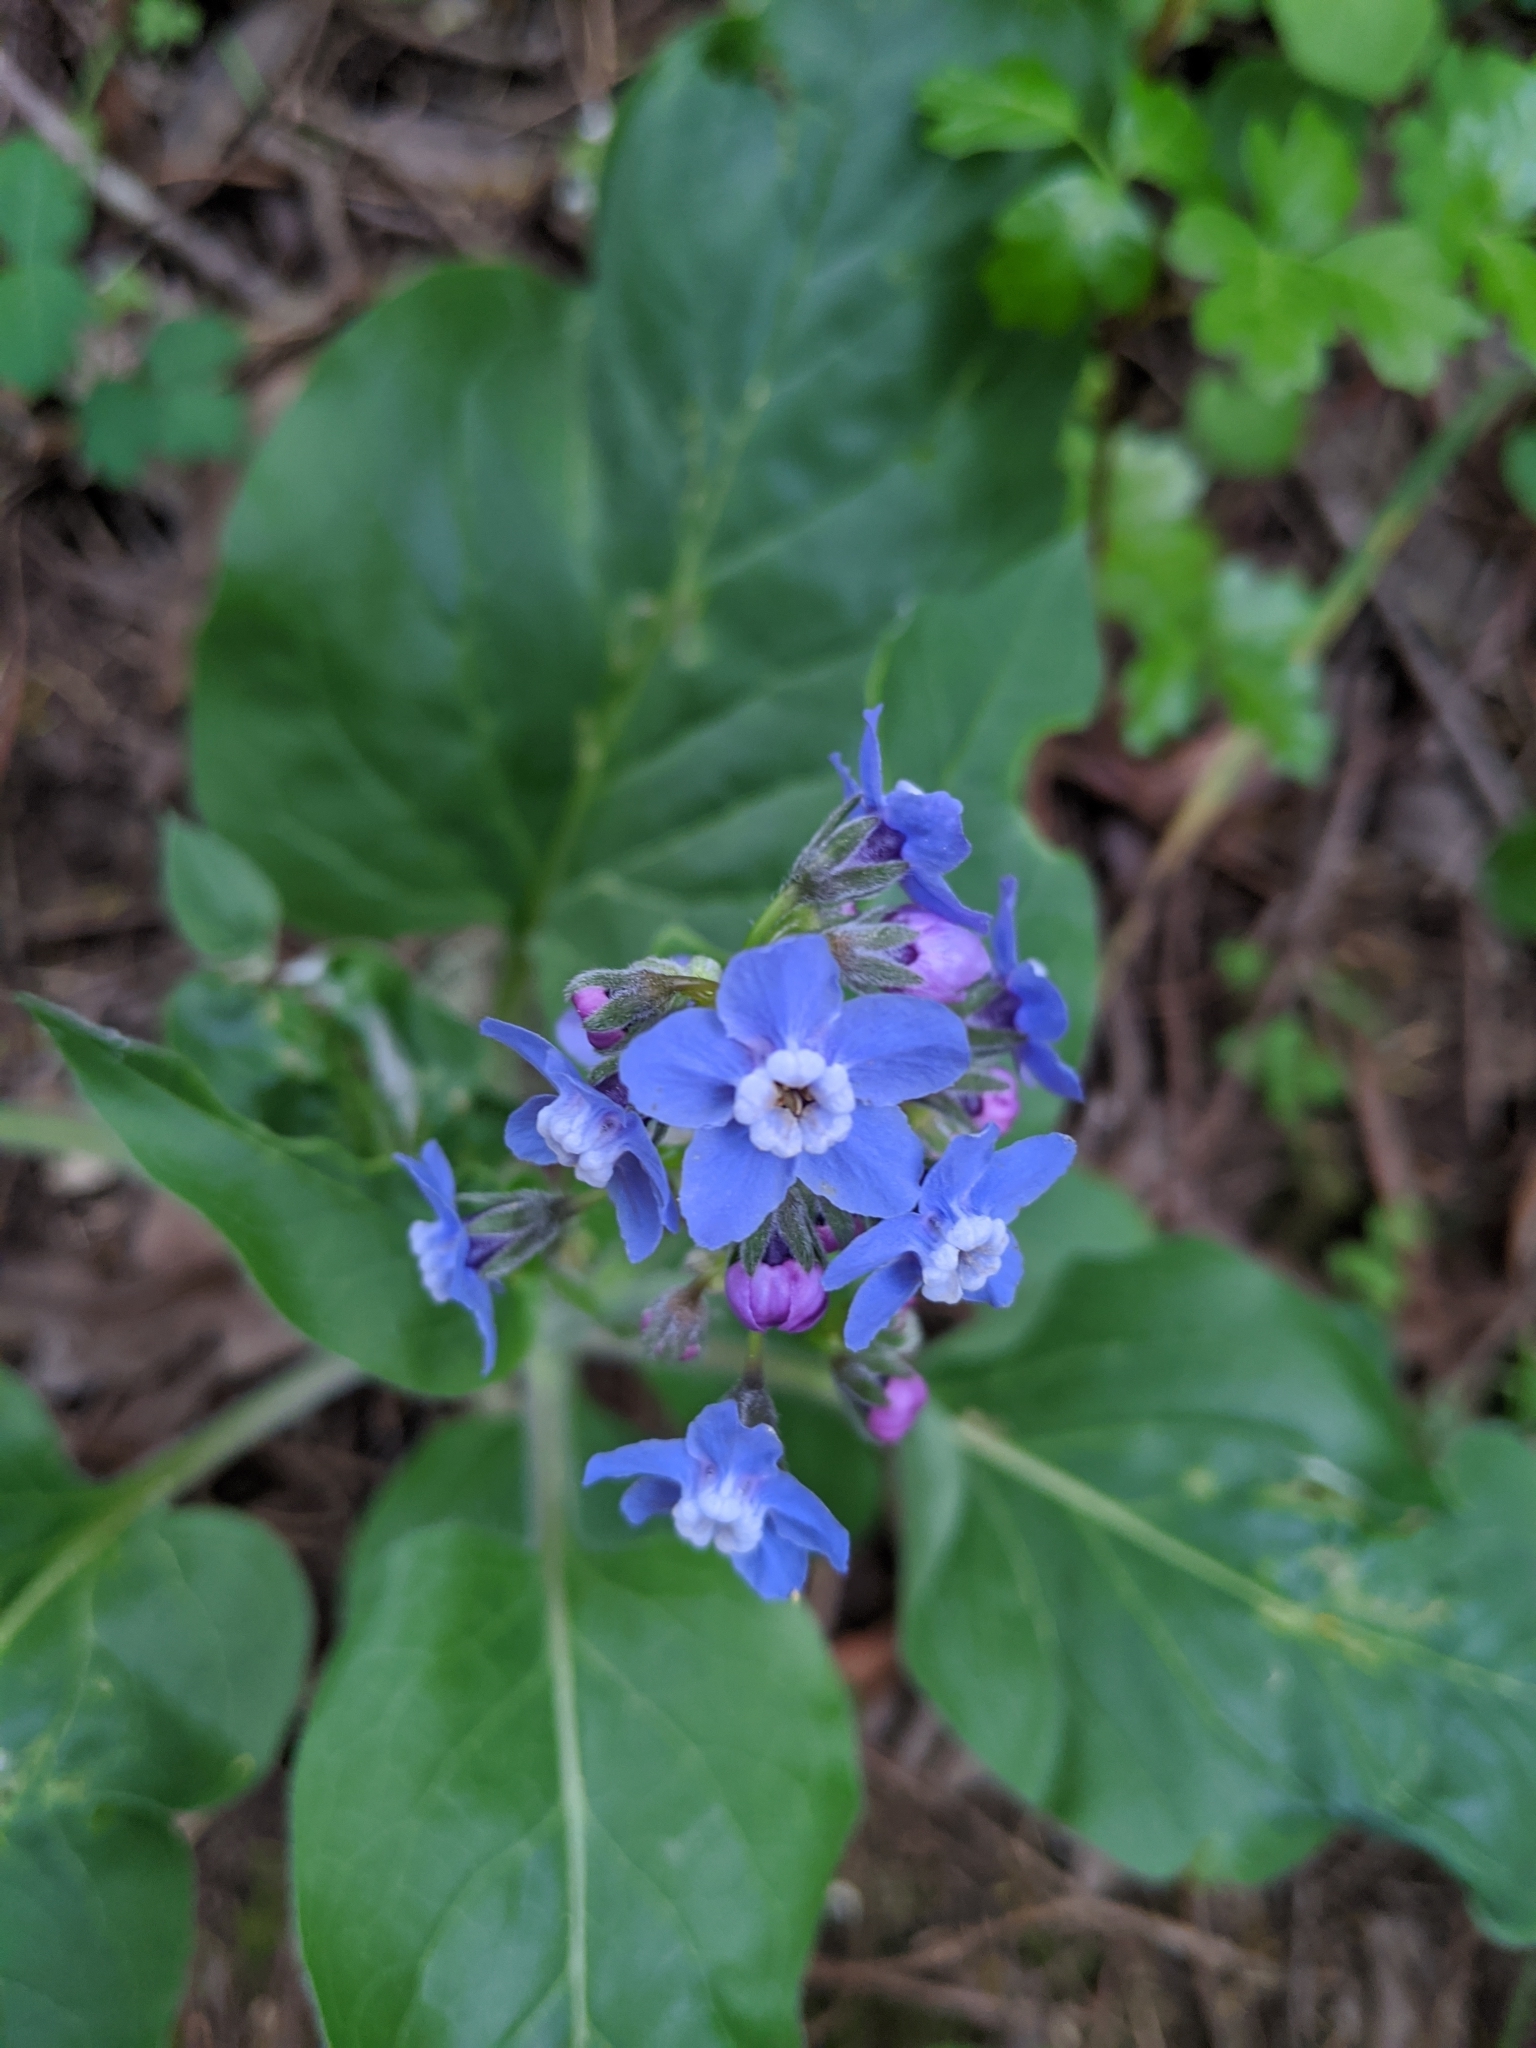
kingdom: Plantae
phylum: Tracheophyta
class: Magnoliopsida
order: Boraginales
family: Boraginaceae
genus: Adelinia
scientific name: Adelinia grande
